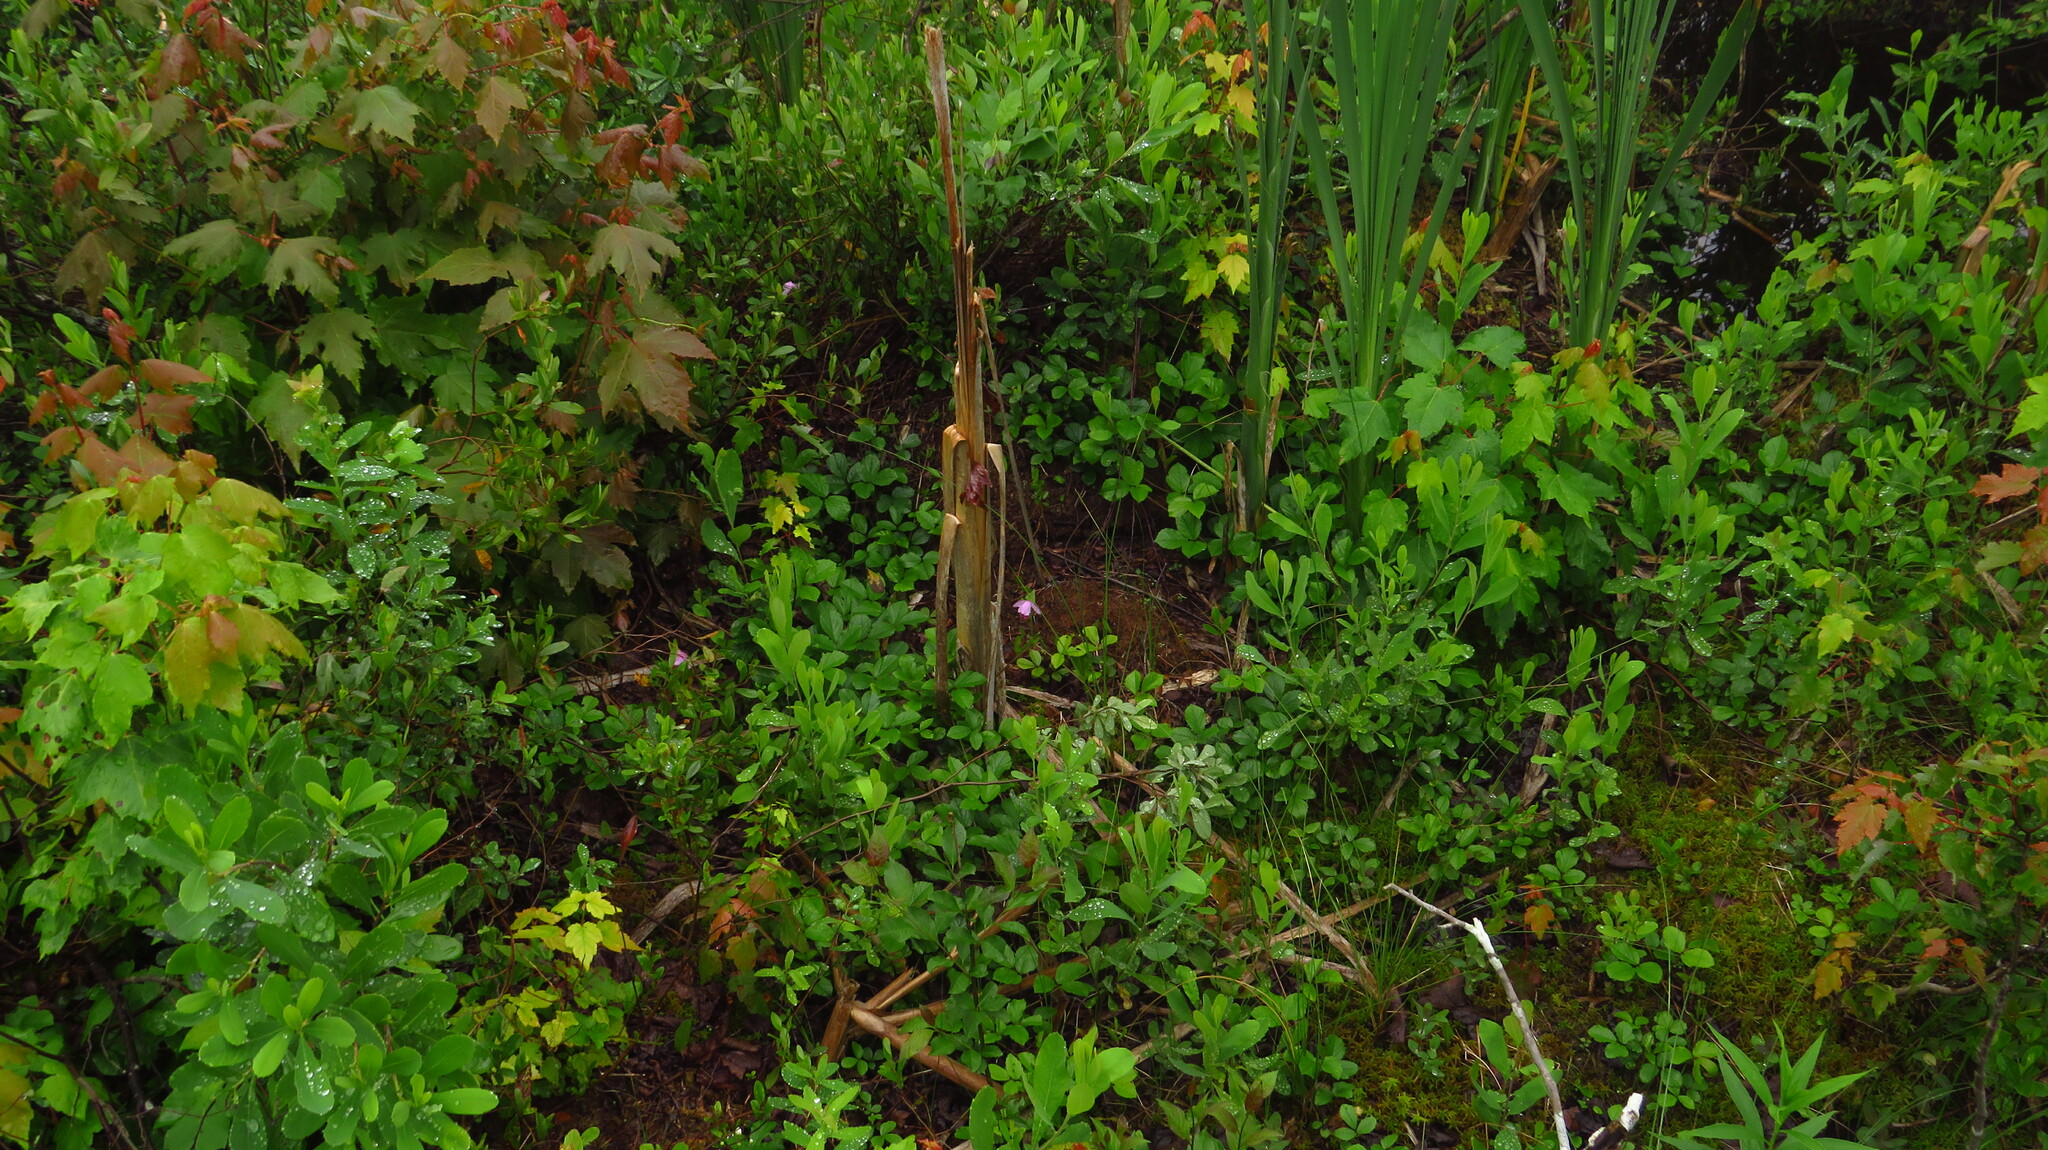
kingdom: Plantae
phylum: Tracheophyta
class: Liliopsida
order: Asparagales
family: Orchidaceae
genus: Pogonia
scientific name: Pogonia ophioglossoides
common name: Rose pogonia
